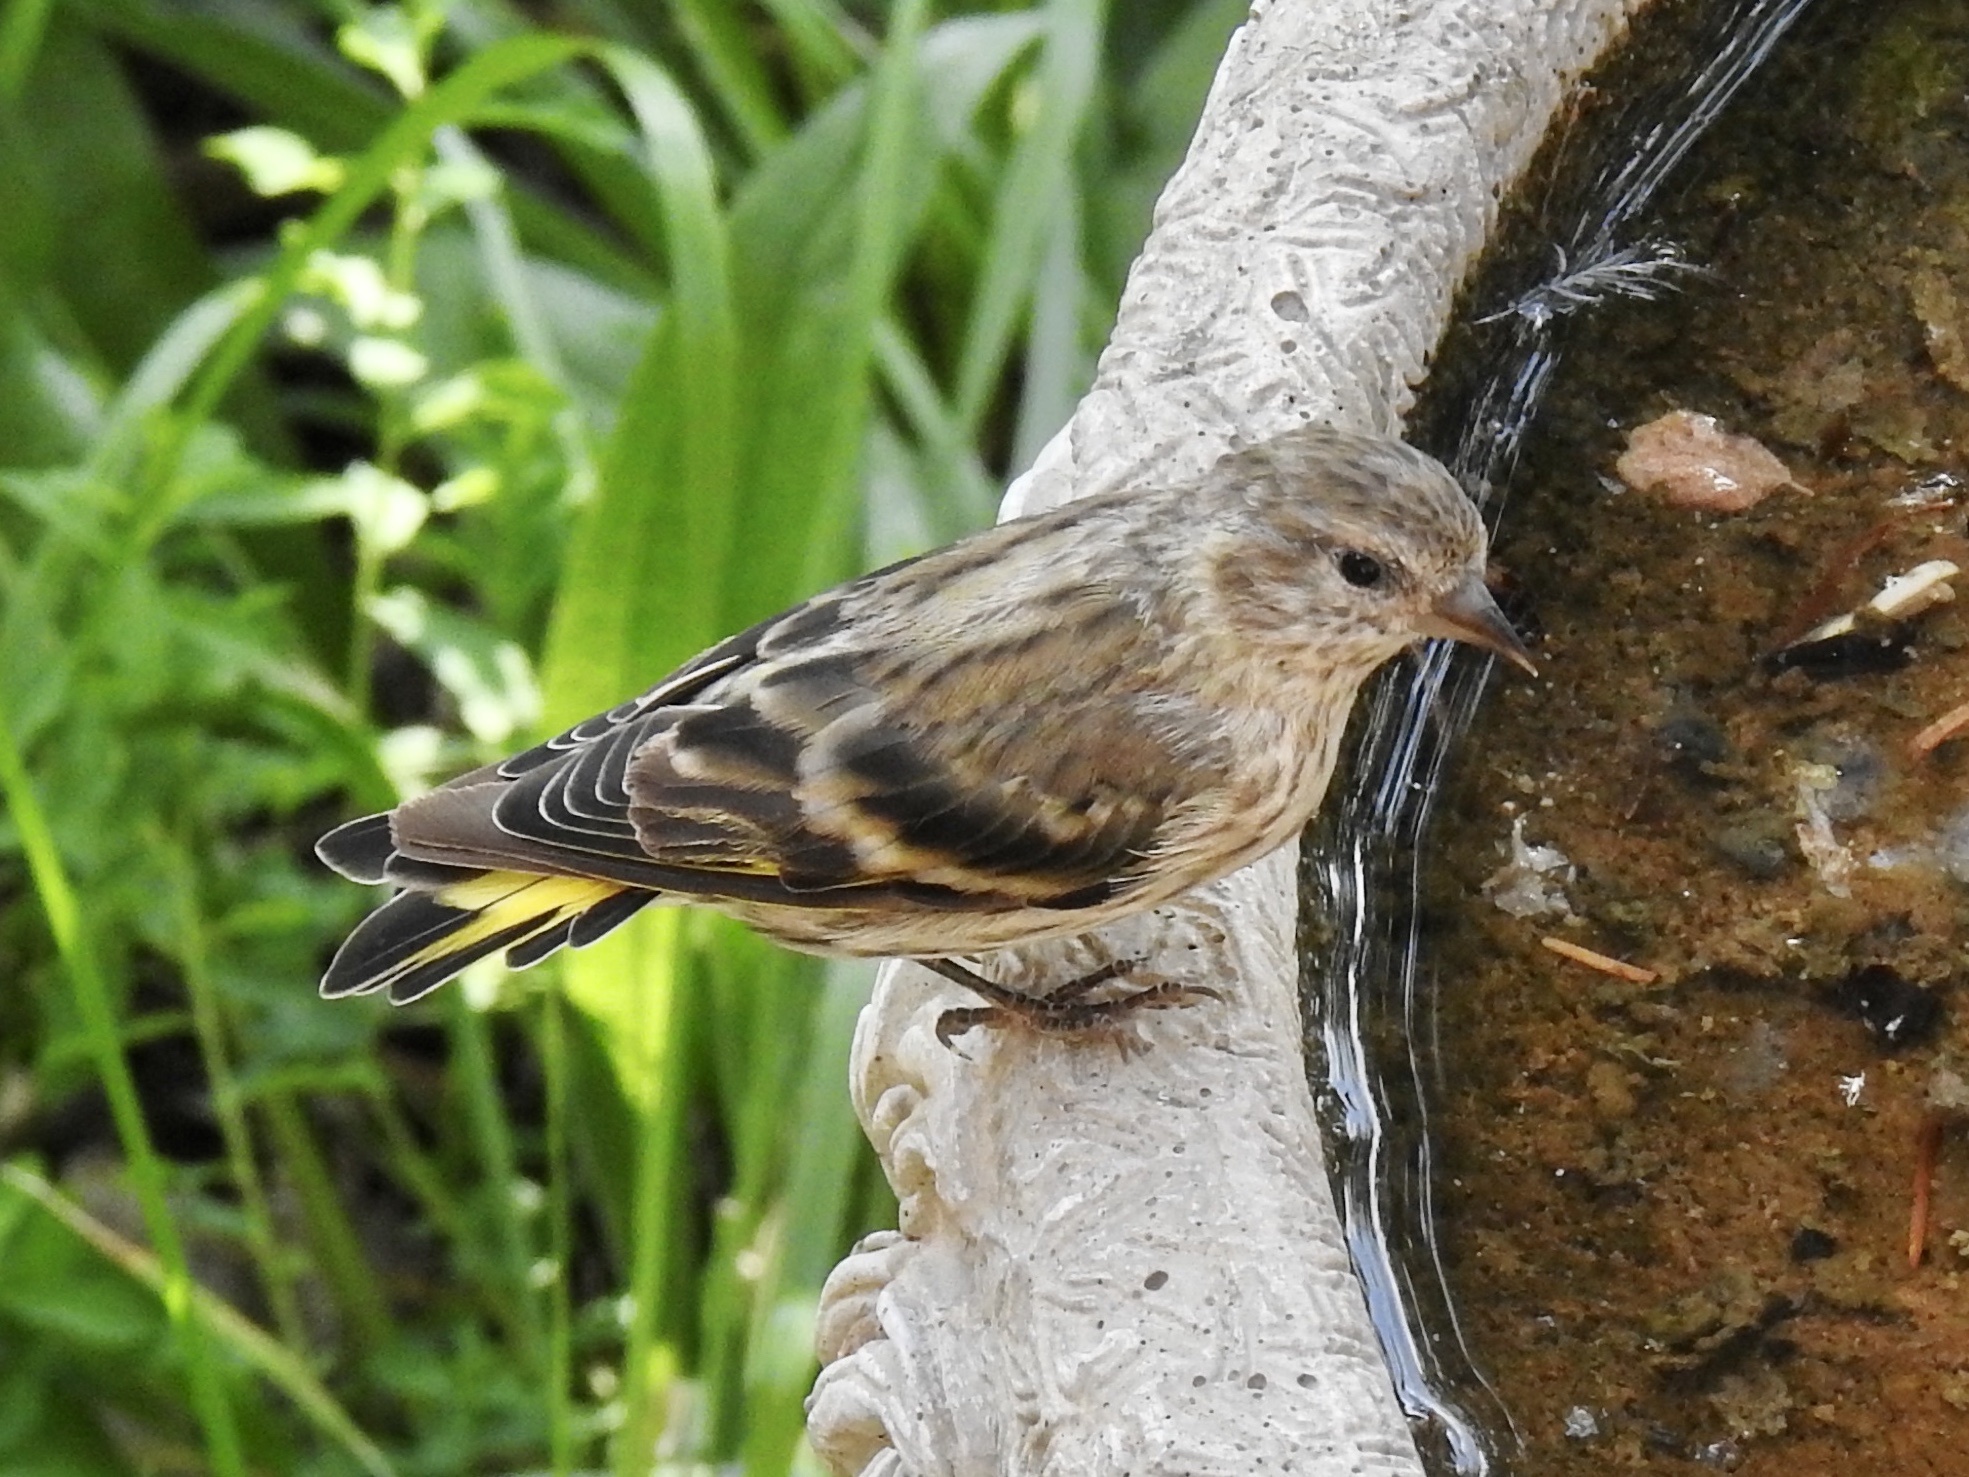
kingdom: Animalia
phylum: Chordata
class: Aves
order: Passeriformes
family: Fringillidae
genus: Spinus
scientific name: Spinus pinus
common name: Pine siskin
